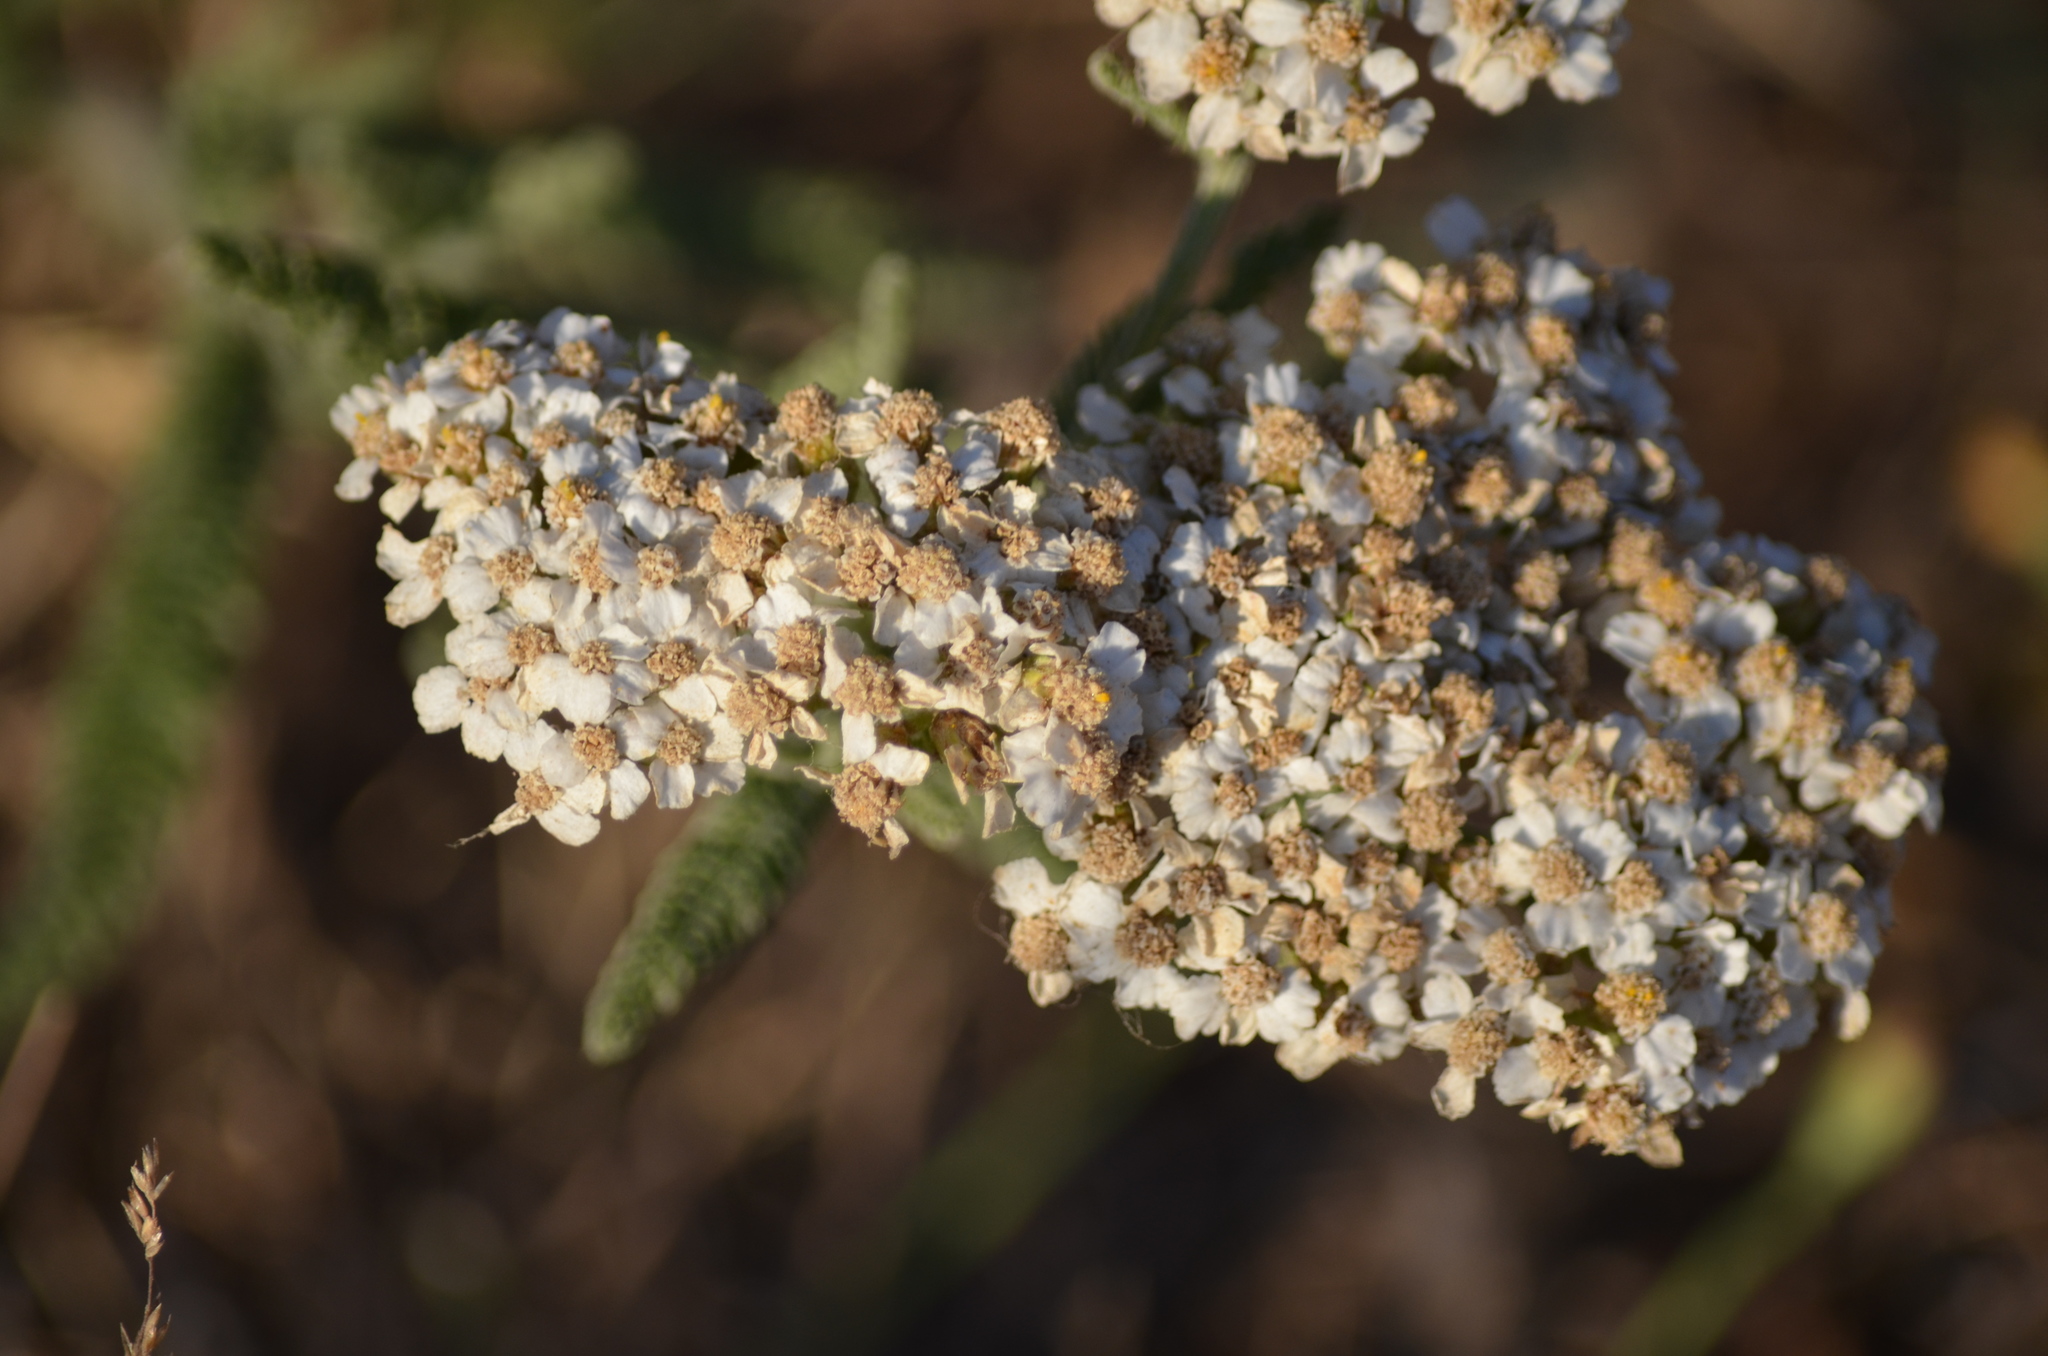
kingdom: Plantae
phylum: Tracheophyta
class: Magnoliopsida
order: Asterales
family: Asteraceae
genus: Achillea
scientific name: Achillea millefolium
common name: Yarrow
